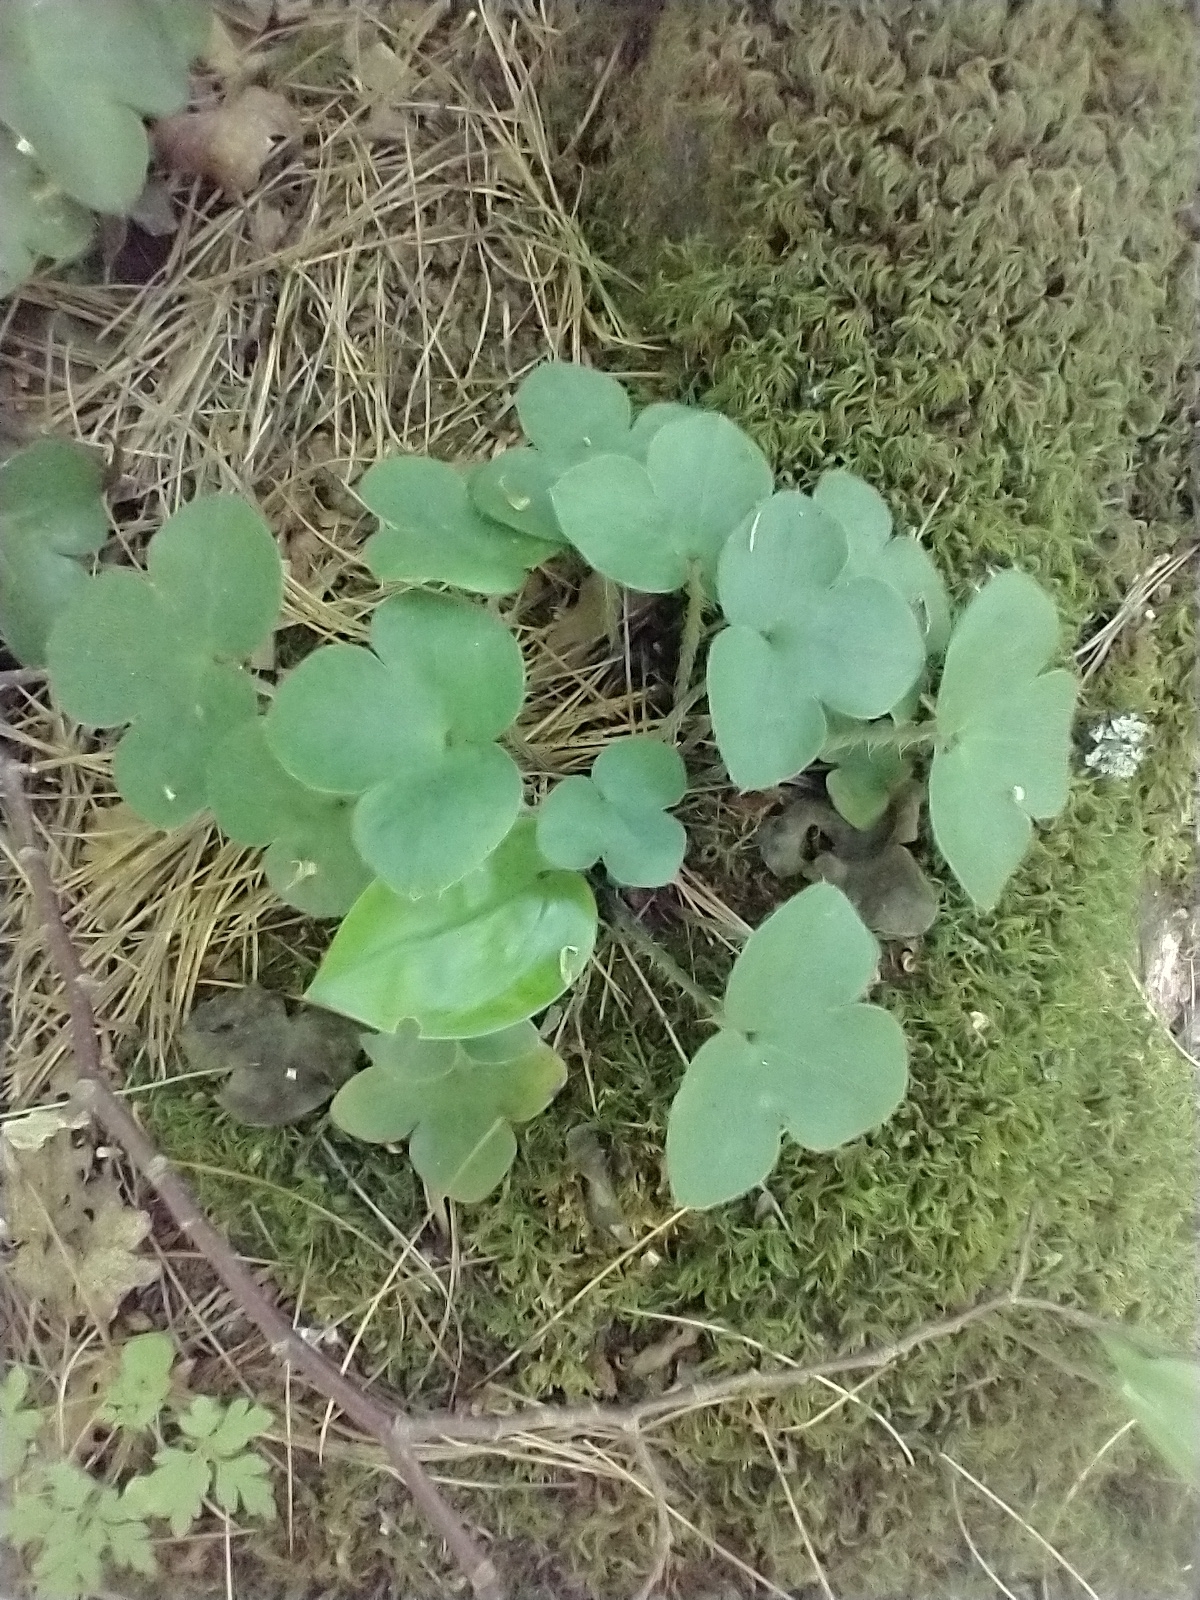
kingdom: Plantae
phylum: Tracheophyta
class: Magnoliopsida
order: Ranunculales
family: Ranunculaceae
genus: Hepatica
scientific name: Hepatica americana
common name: American hepatica
